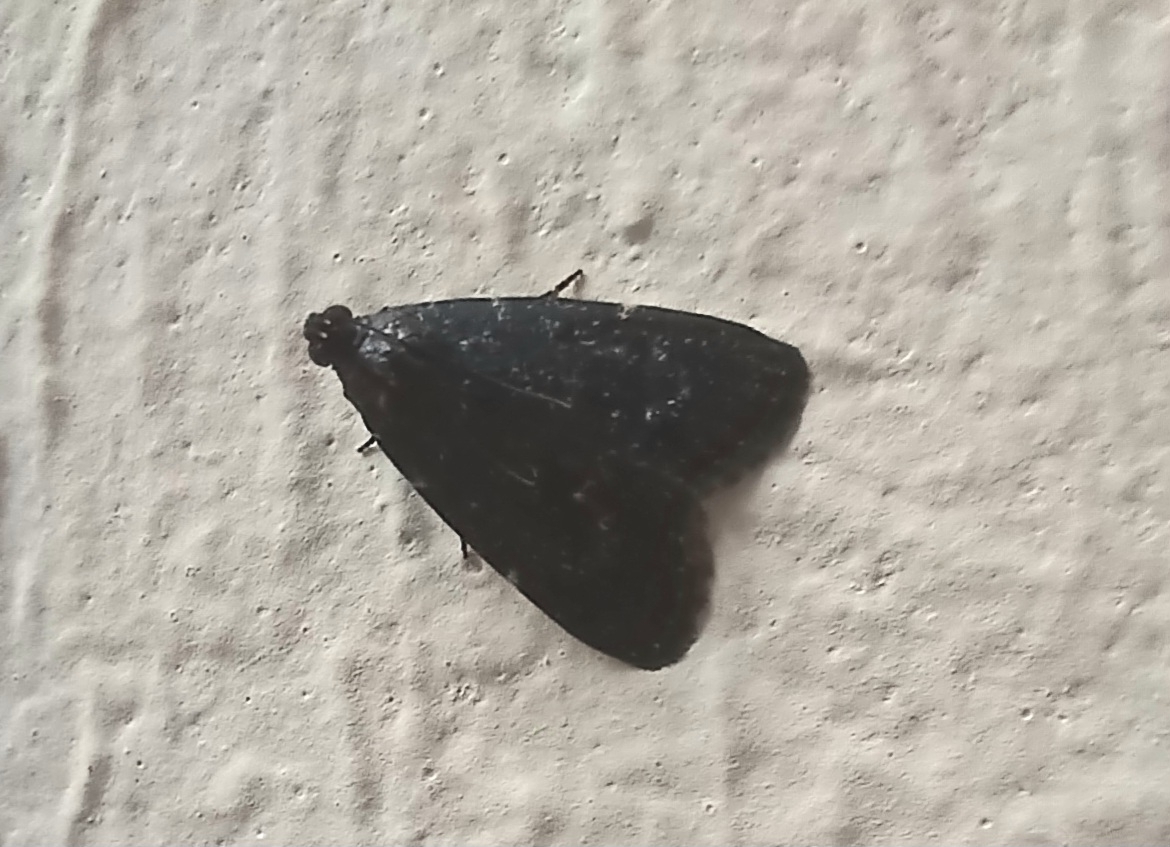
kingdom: Animalia
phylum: Arthropoda
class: Insecta
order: Lepidoptera
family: Pyralidae
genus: Stericta
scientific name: Stericta carbonalis
